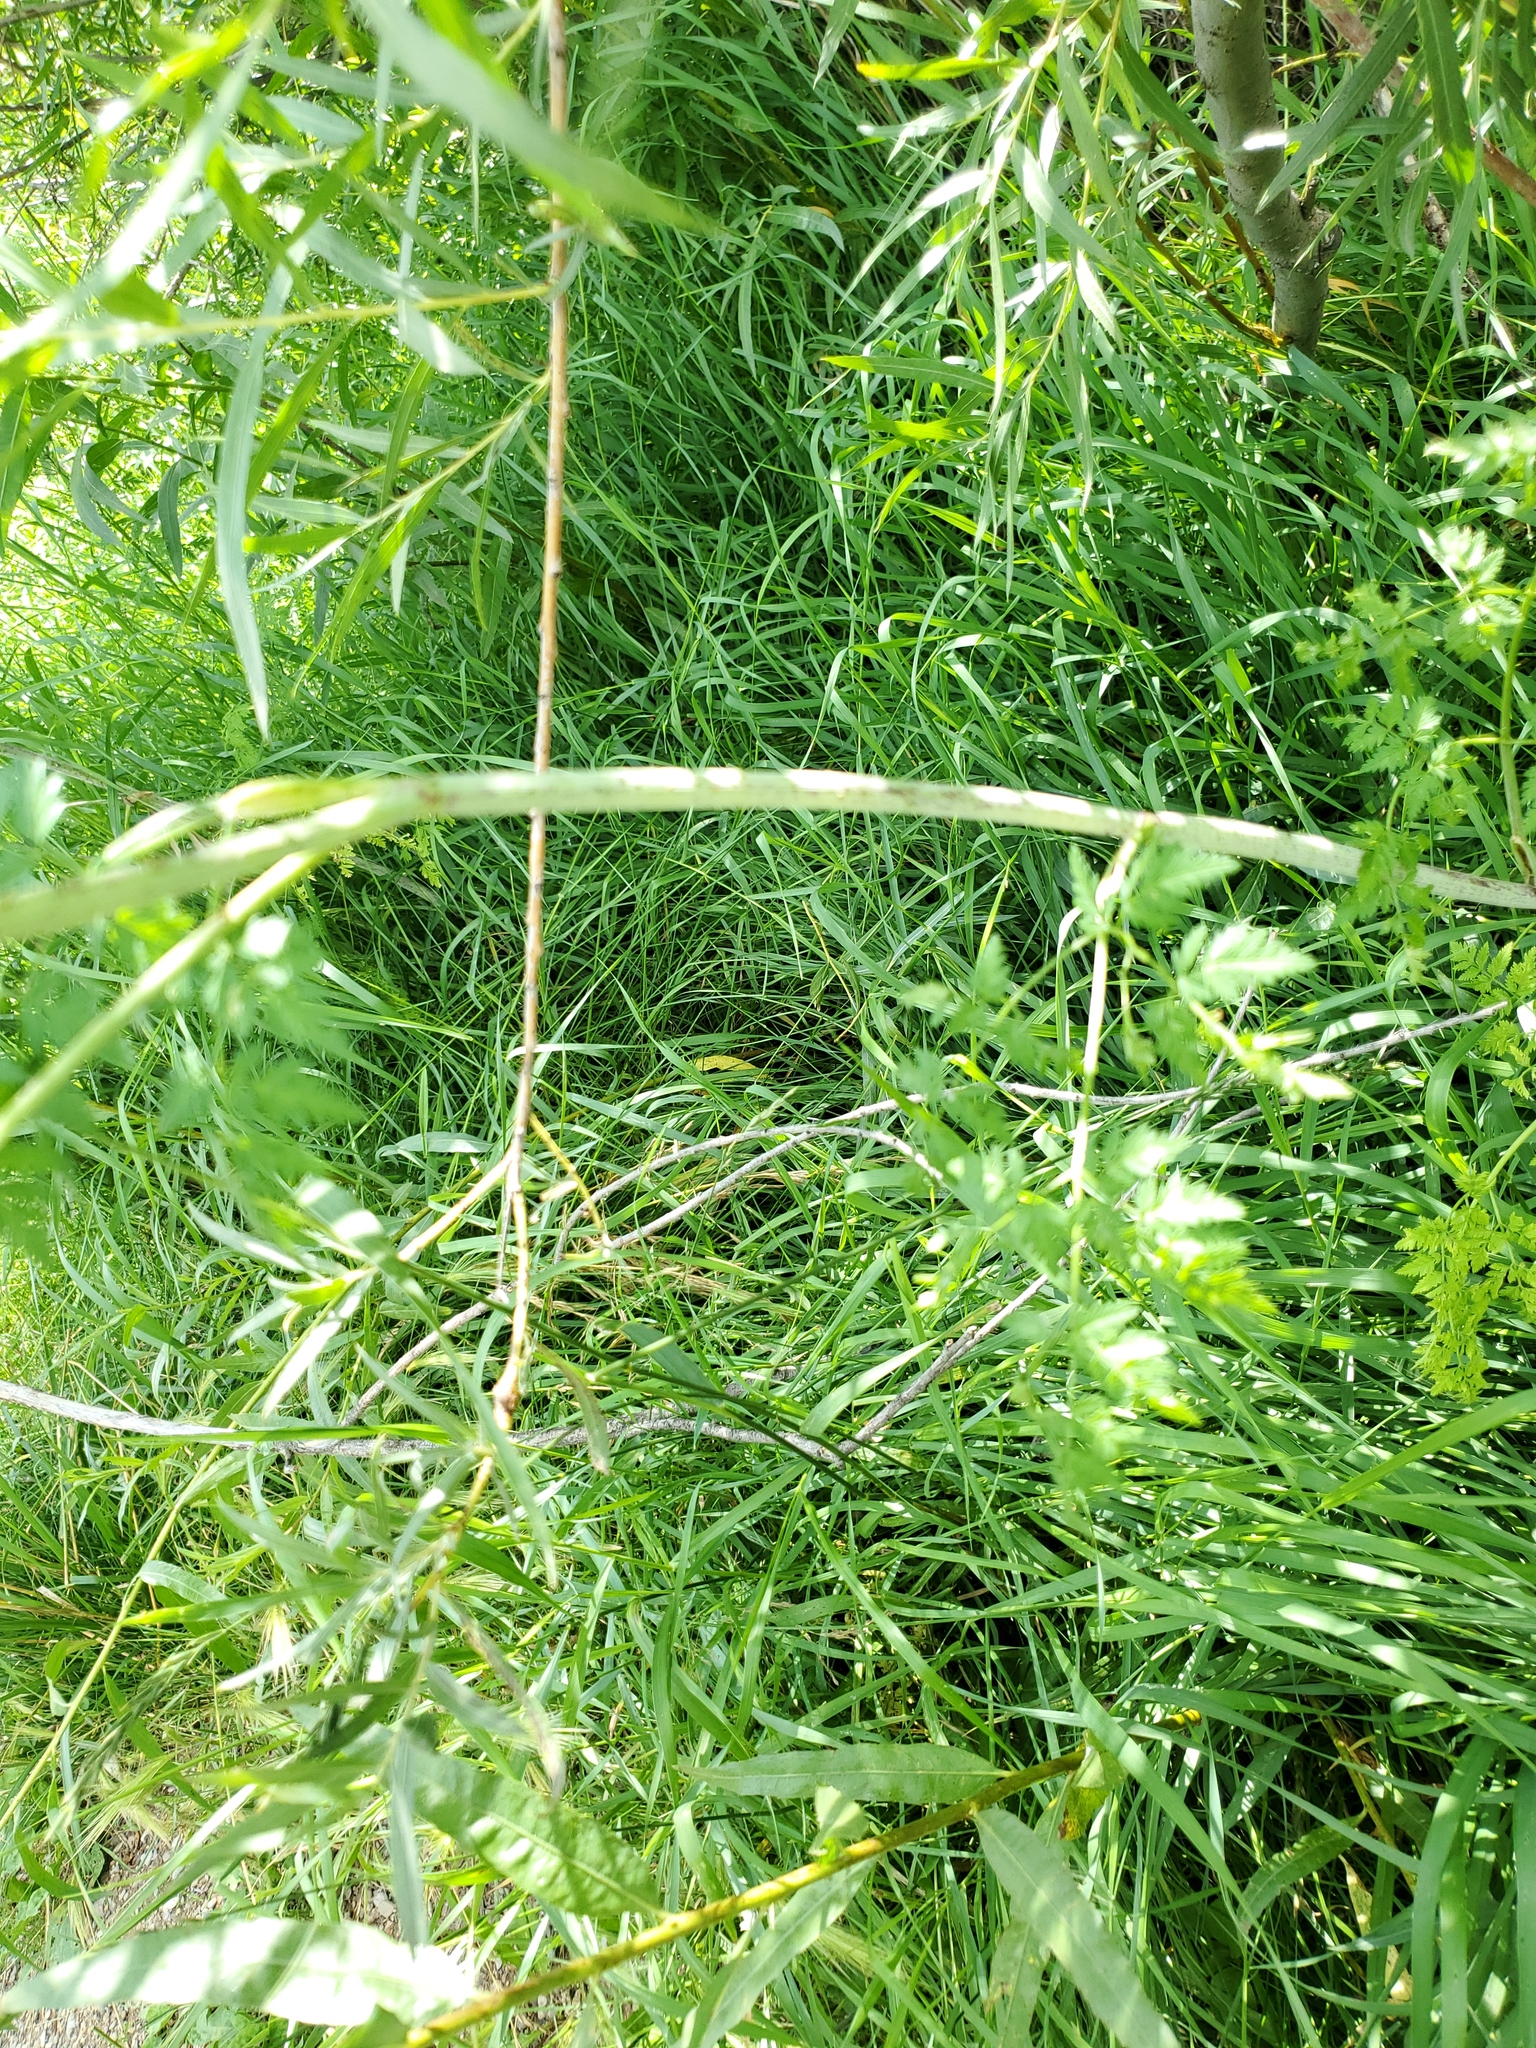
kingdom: Plantae
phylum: Tracheophyta
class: Magnoliopsida
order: Apiales
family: Apiaceae
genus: Conium
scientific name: Conium maculatum
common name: Hemlock
